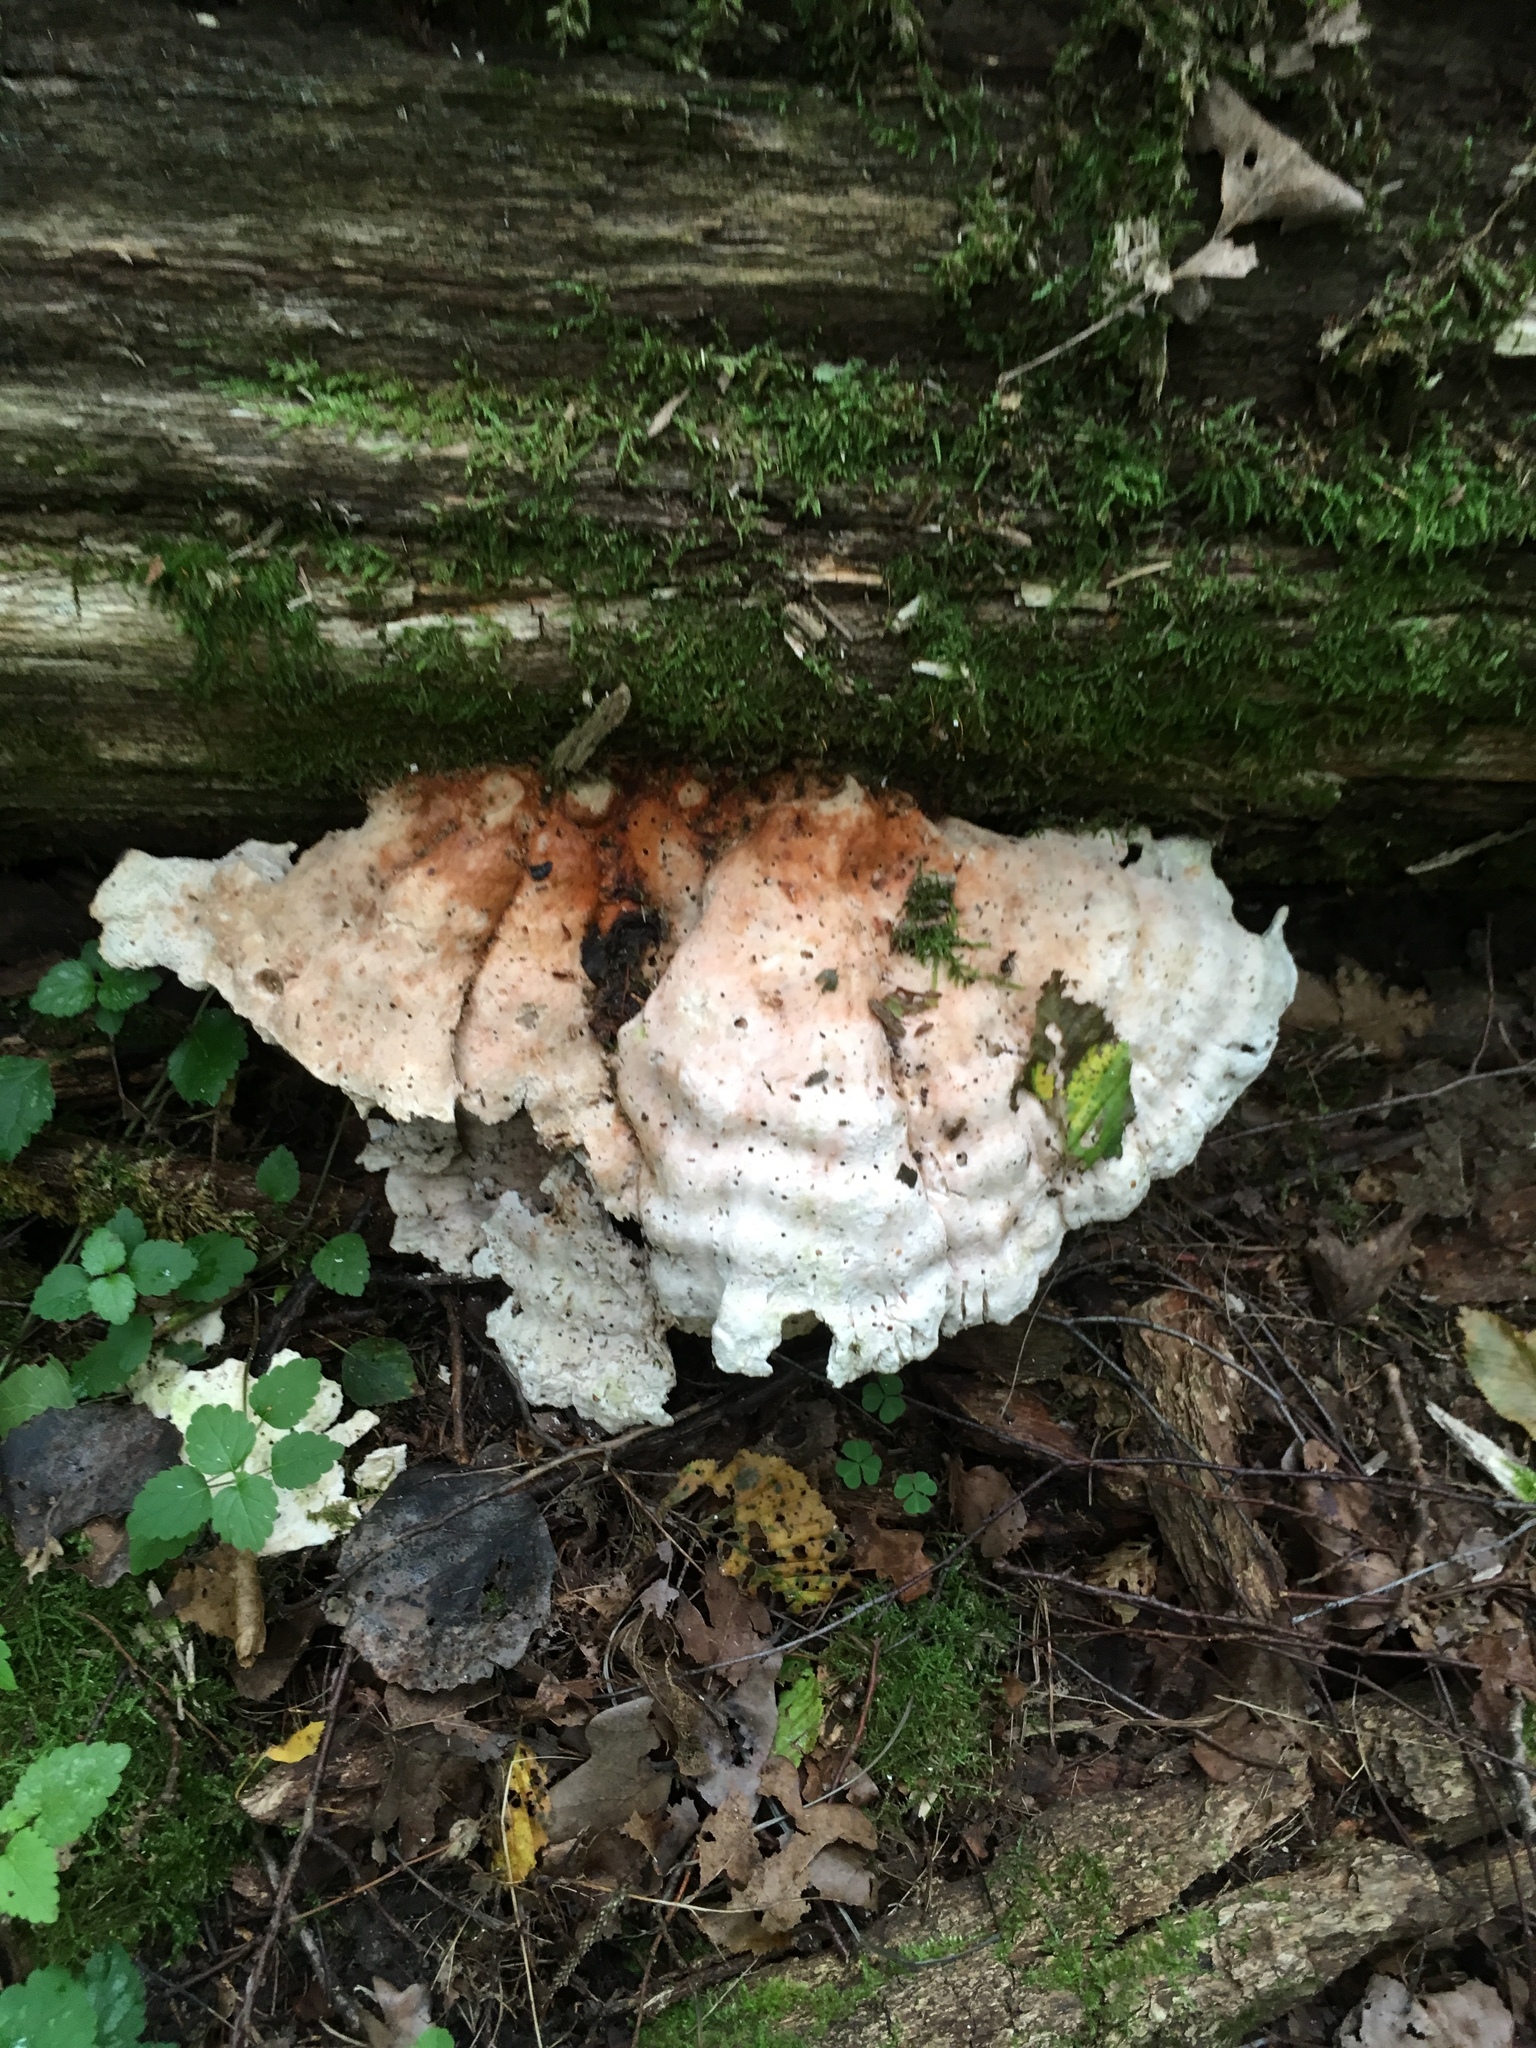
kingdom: Fungi
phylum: Basidiomycota
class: Agaricomycetes
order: Polyporales
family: Laetiporaceae
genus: Laetiporus
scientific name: Laetiporus sulphureus
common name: Chicken of the woods
